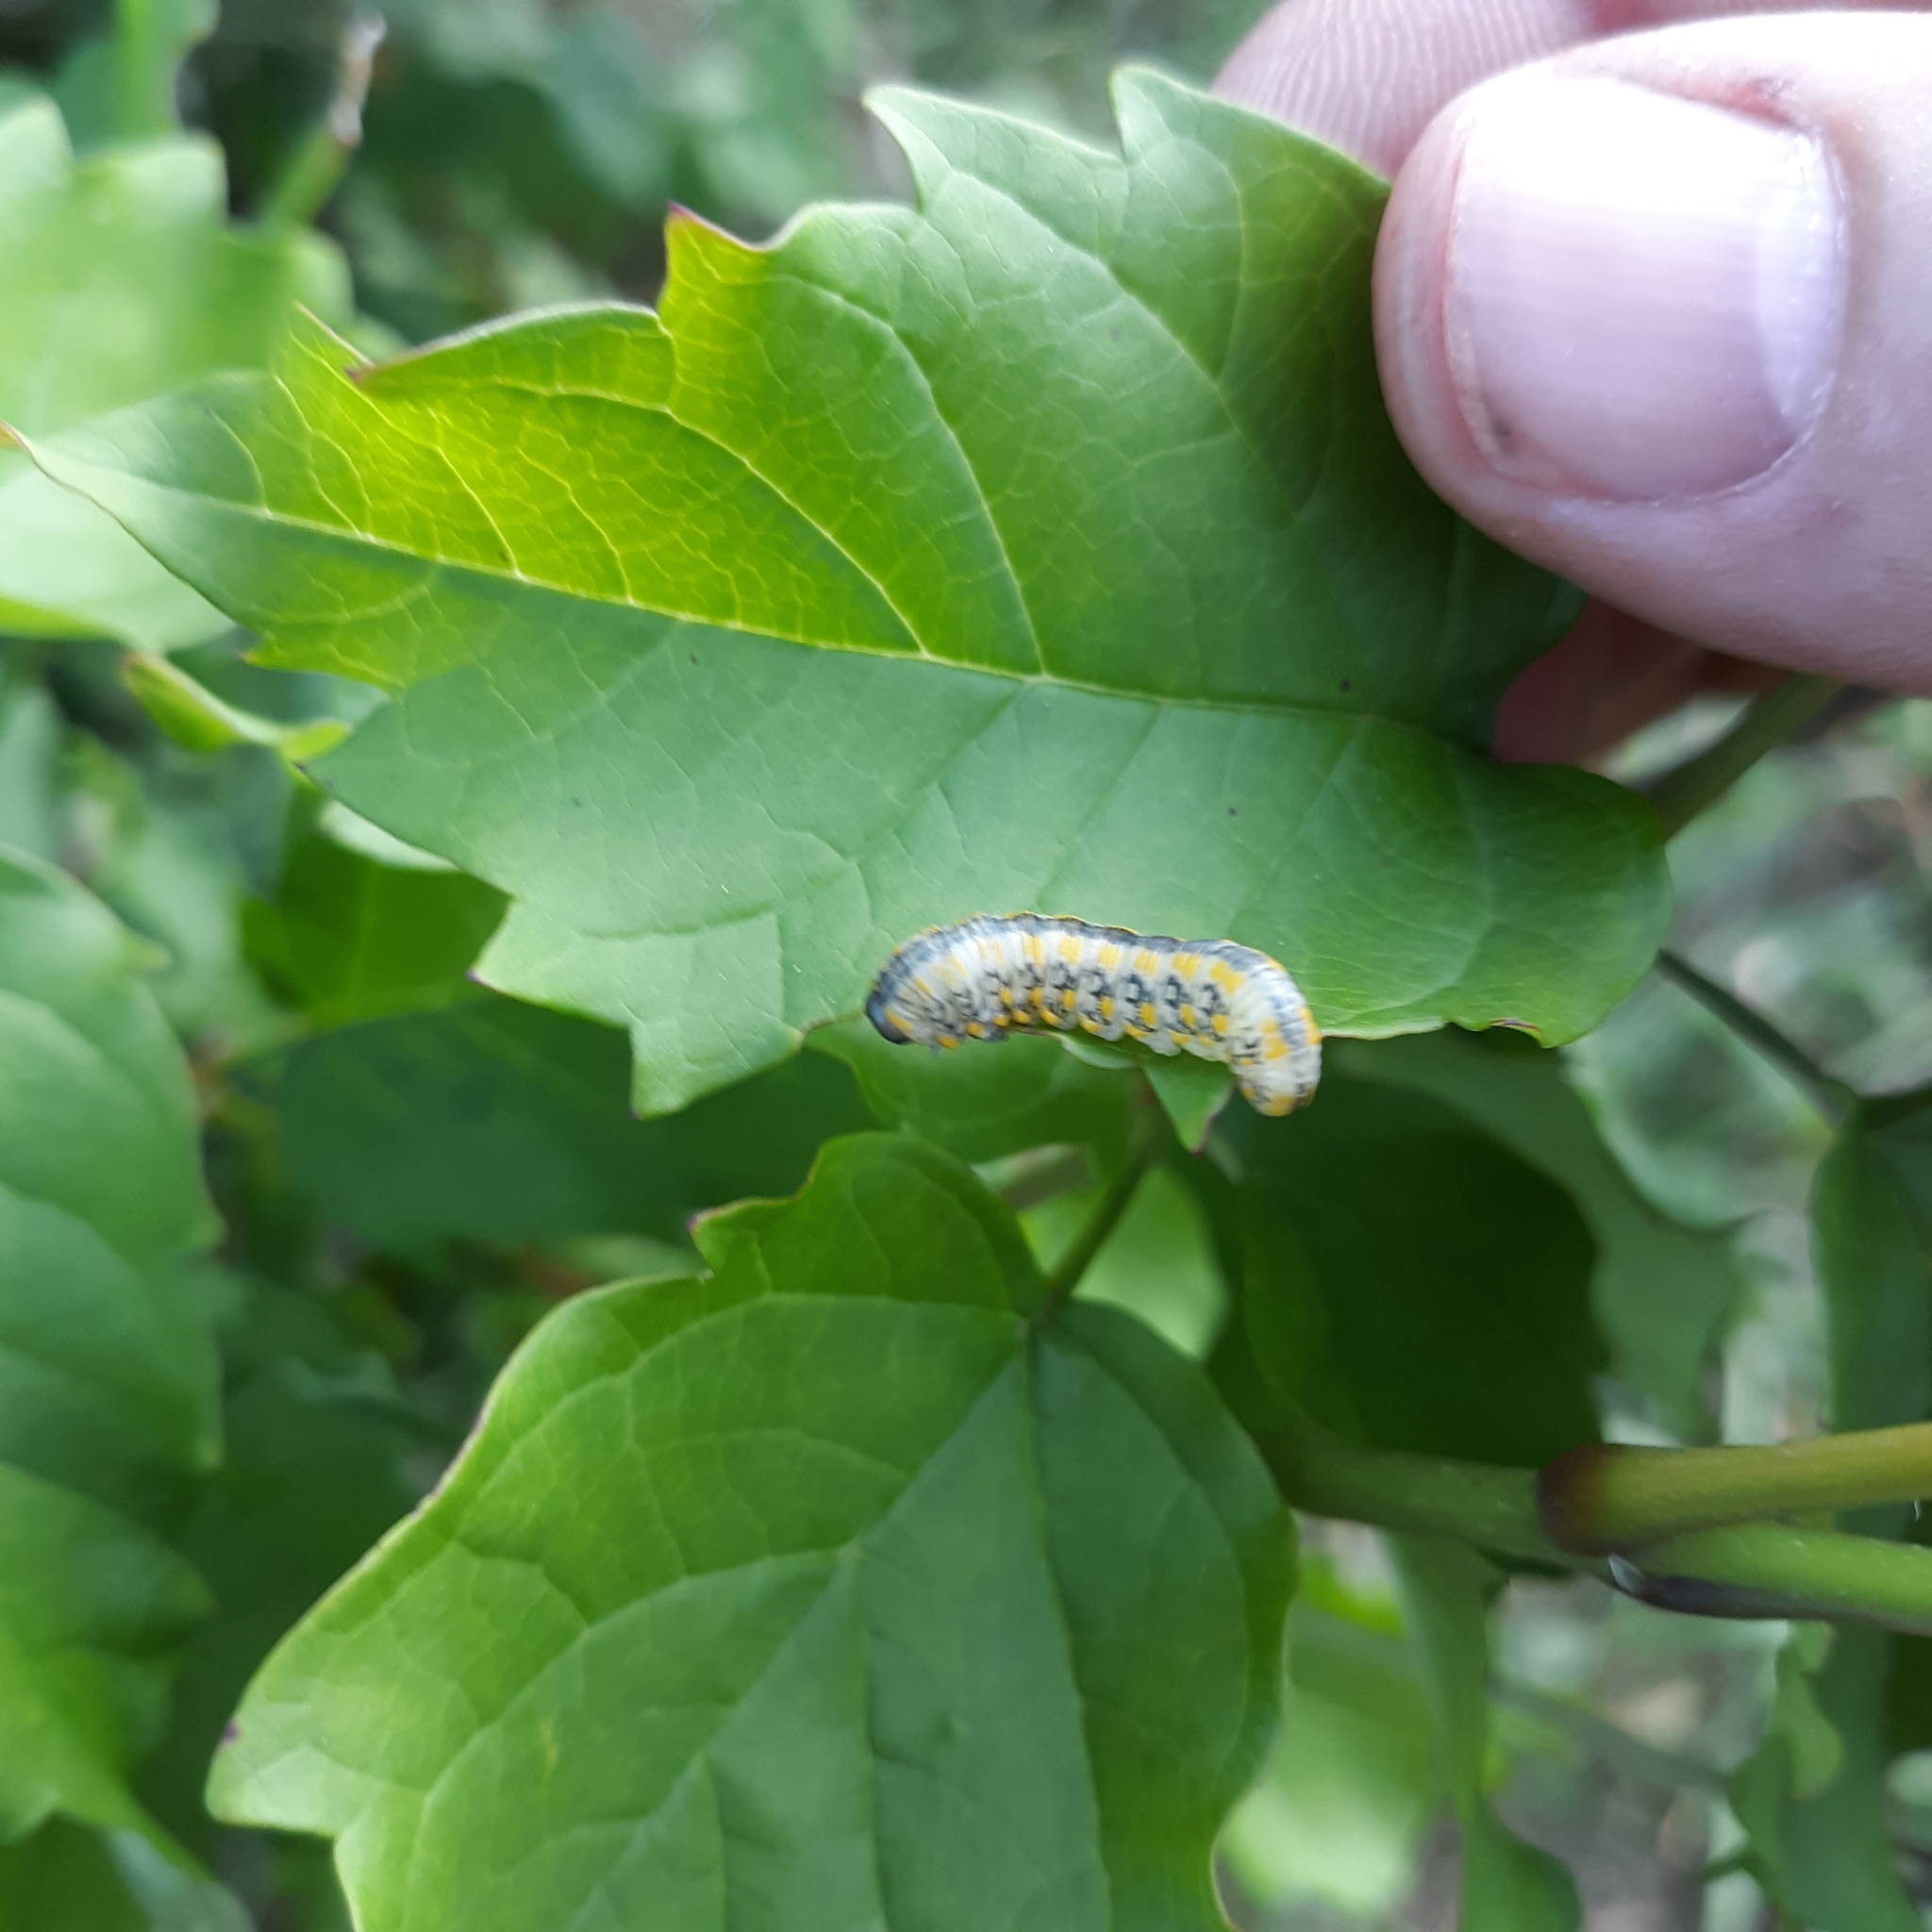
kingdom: Animalia
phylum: Arthropoda
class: Insecta
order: Hymenoptera
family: Diprionidae
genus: Diprion
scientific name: Diprion similis
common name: Pine sawfly
